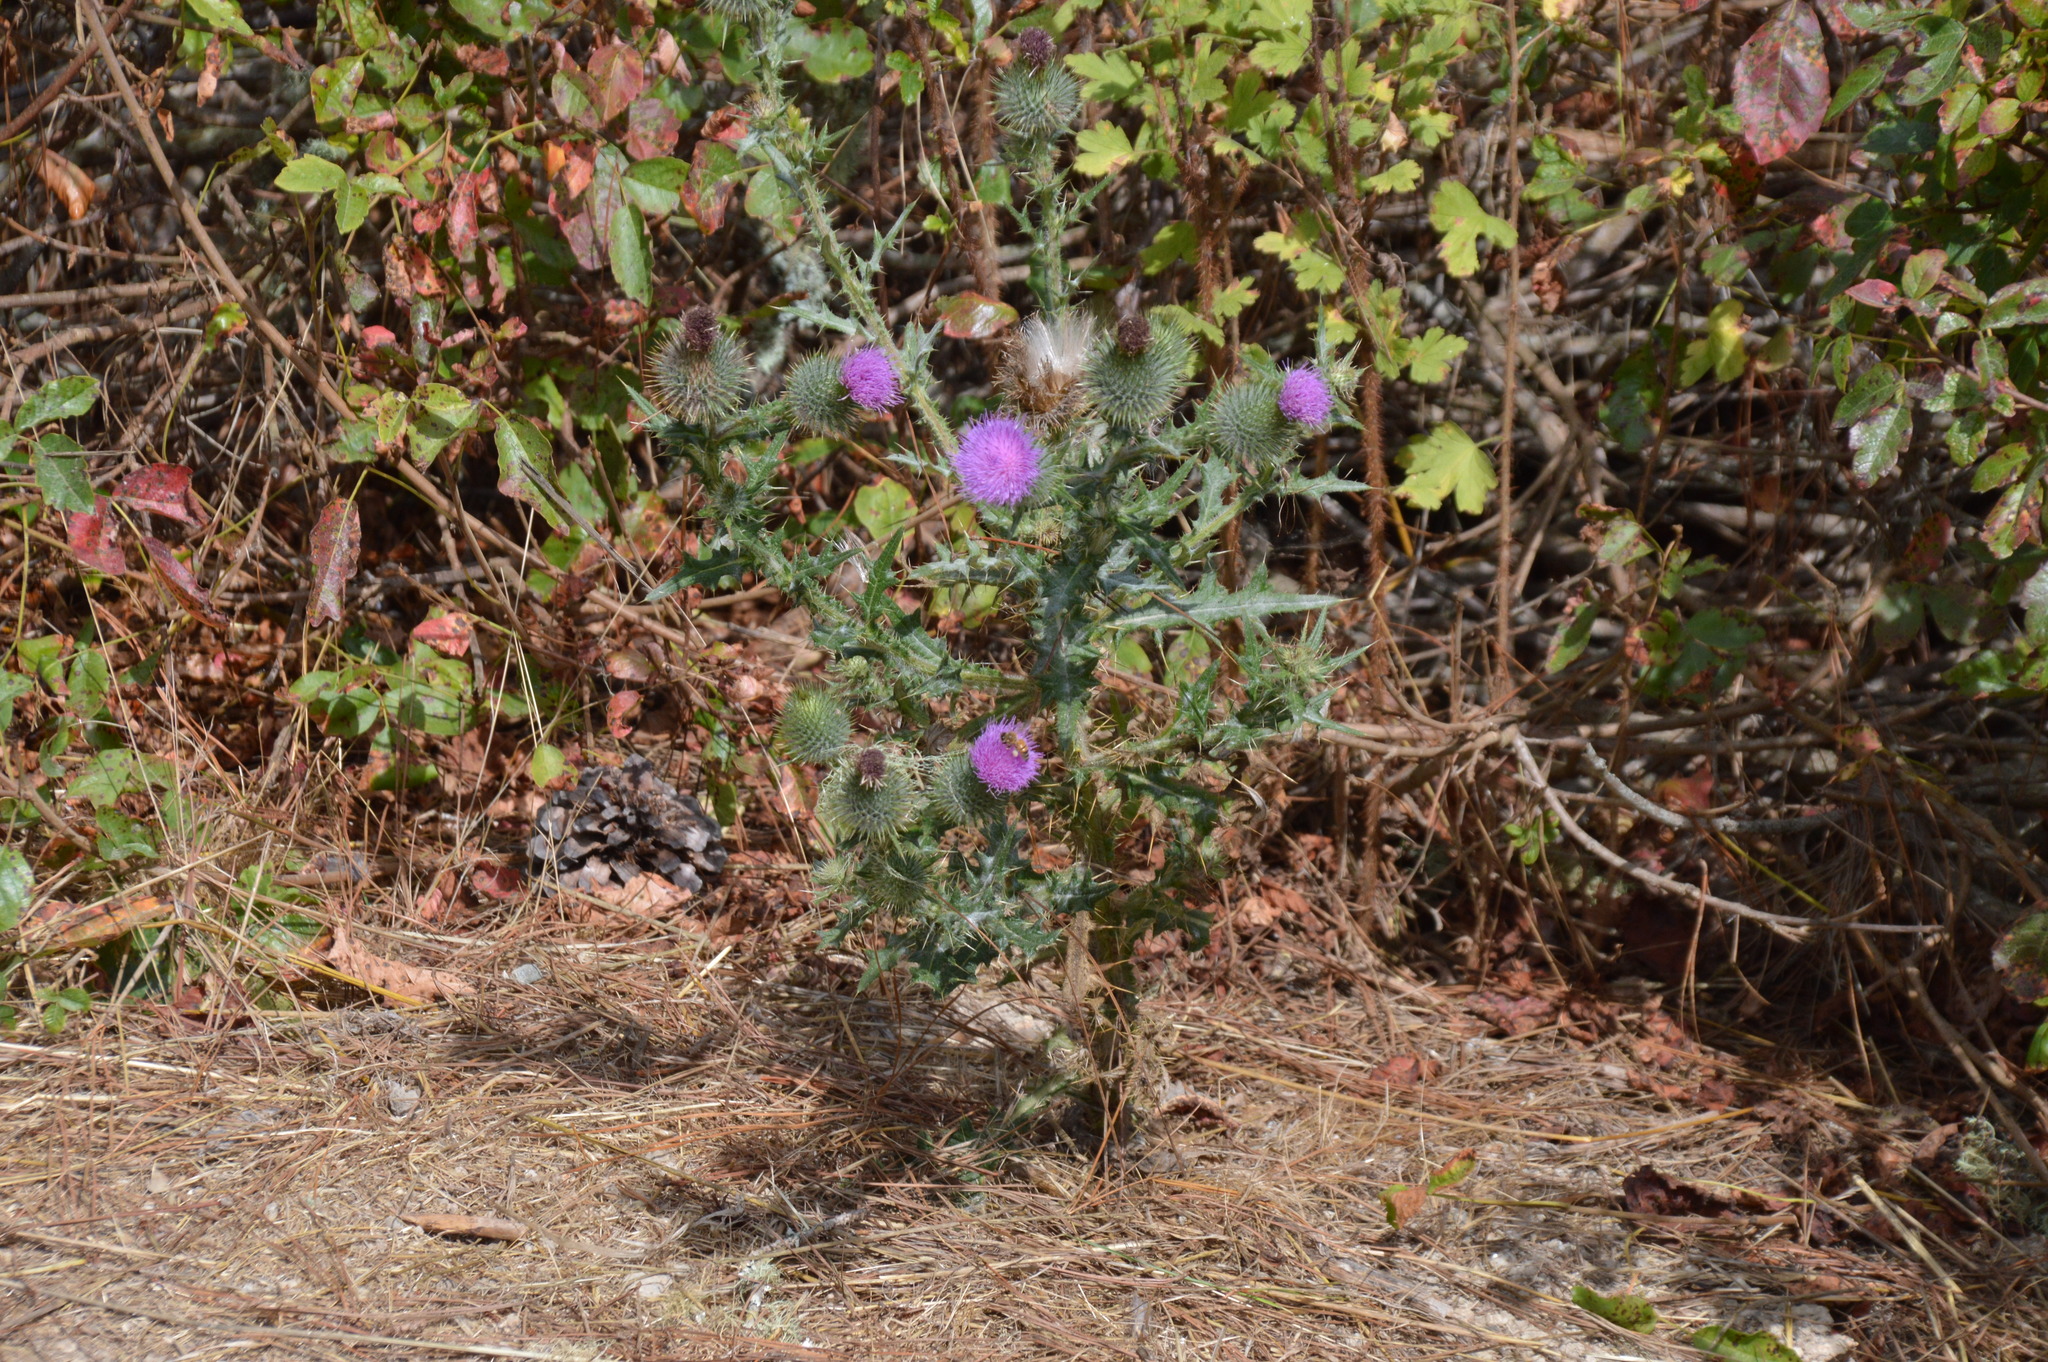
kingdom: Plantae
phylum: Tracheophyta
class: Magnoliopsida
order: Asterales
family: Asteraceae
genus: Cirsium
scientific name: Cirsium vulgare
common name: Bull thistle
